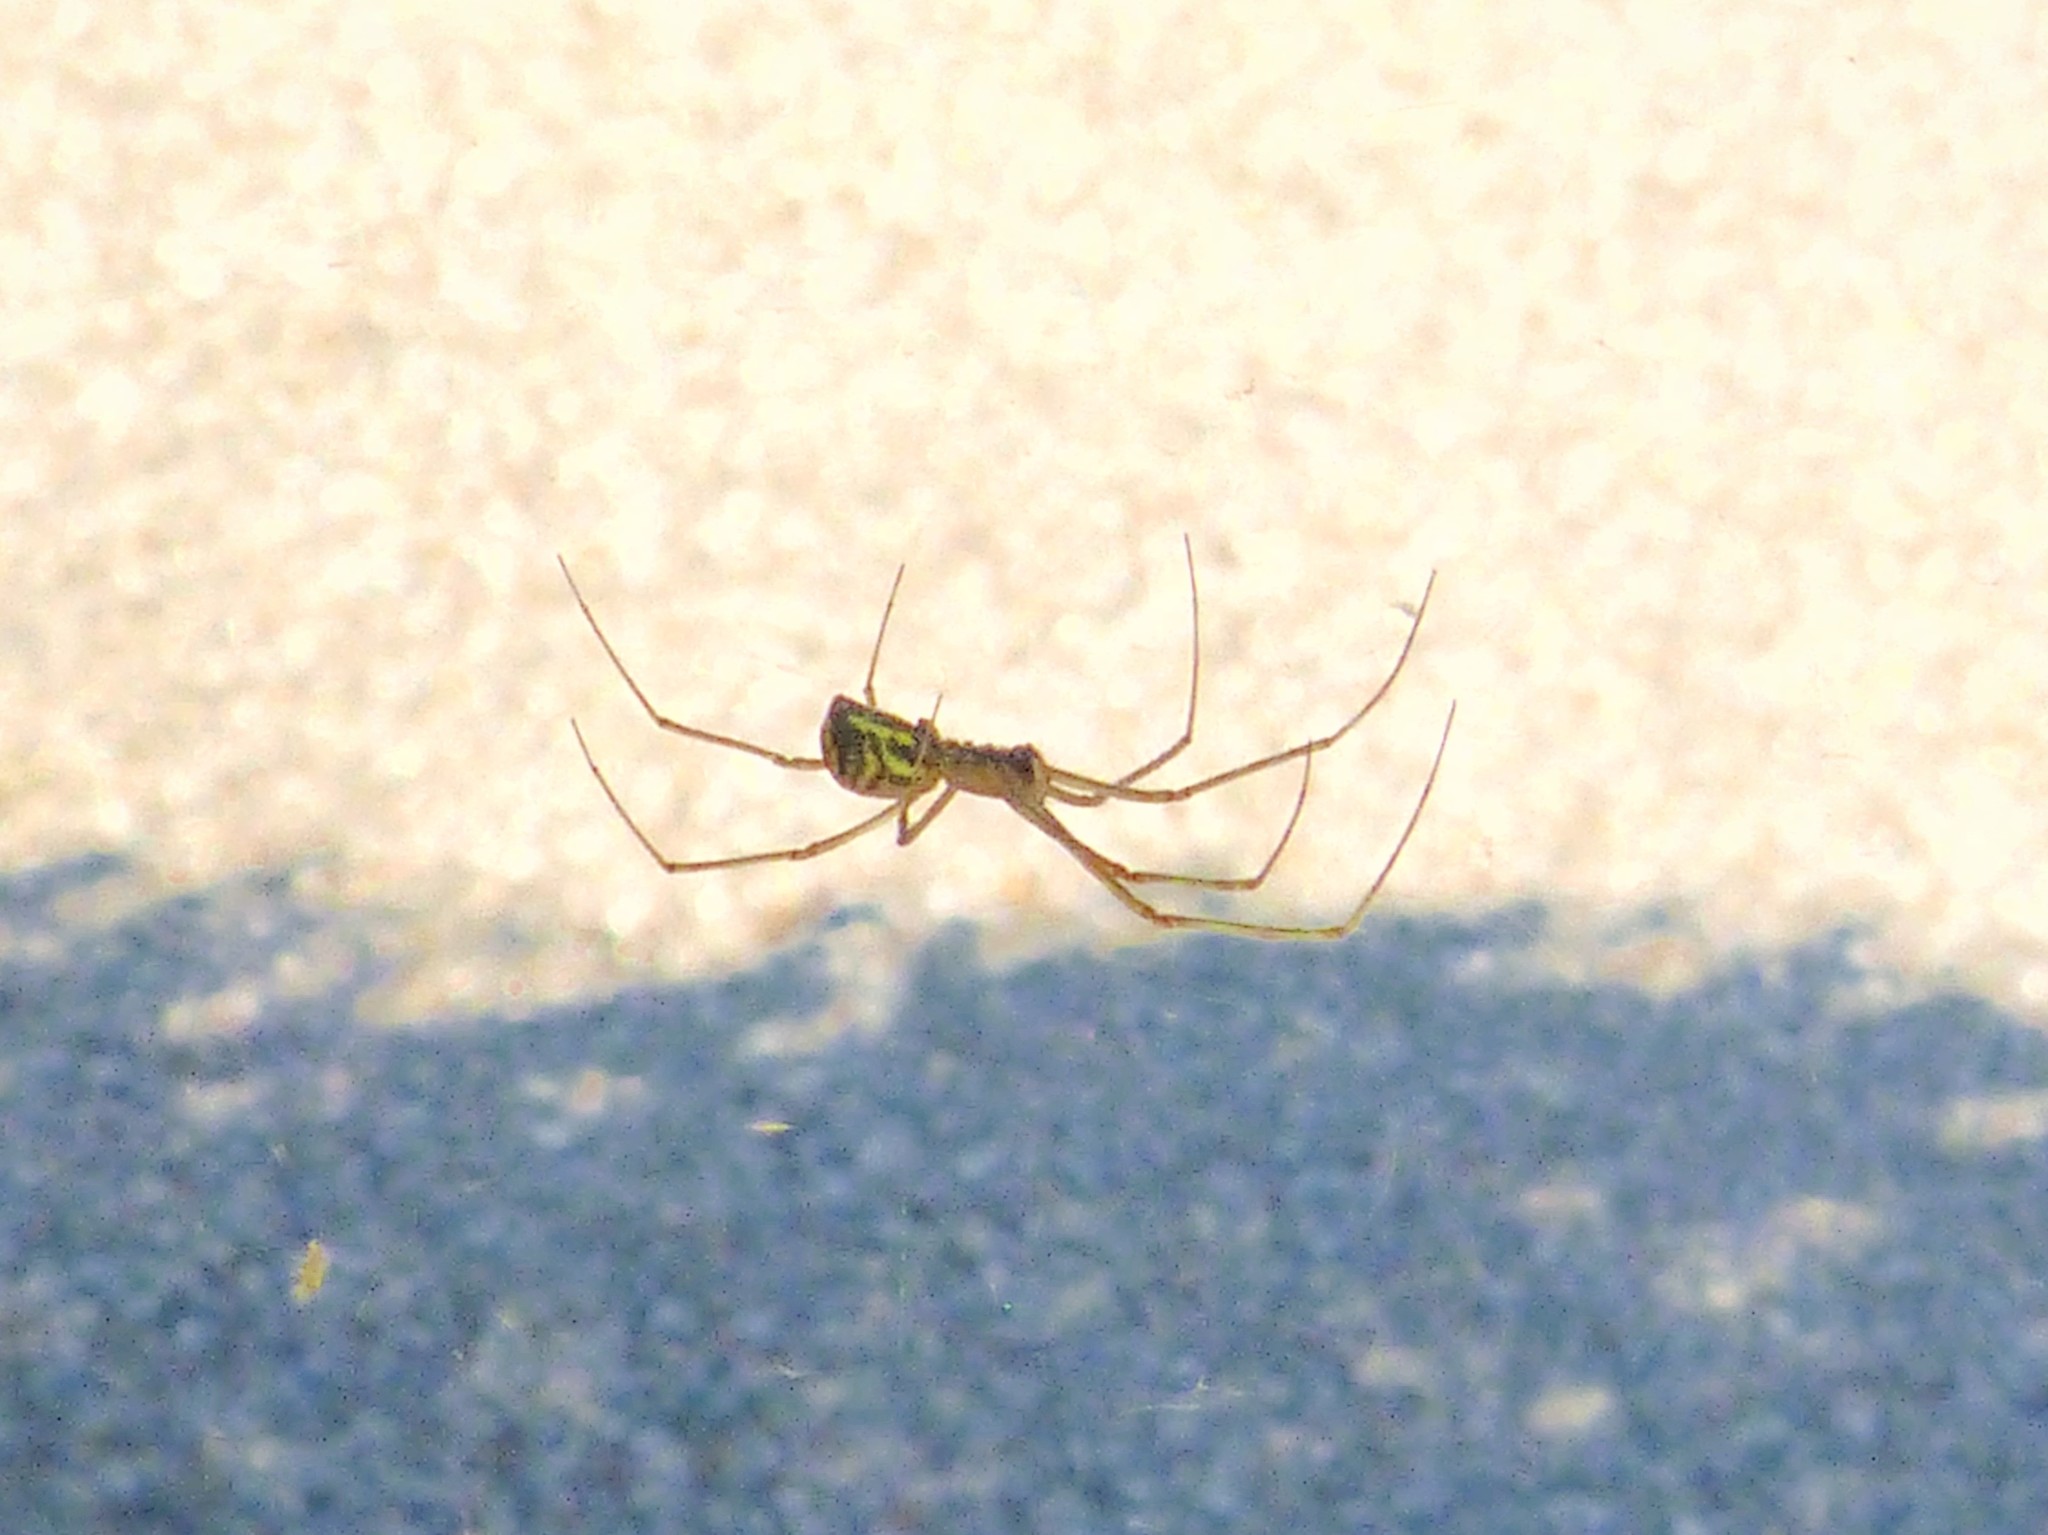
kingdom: Animalia
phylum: Arthropoda
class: Arachnida
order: Araneae
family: Linyphiidae
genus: Neriene
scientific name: Neriene radiata
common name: Filmy dome spider
